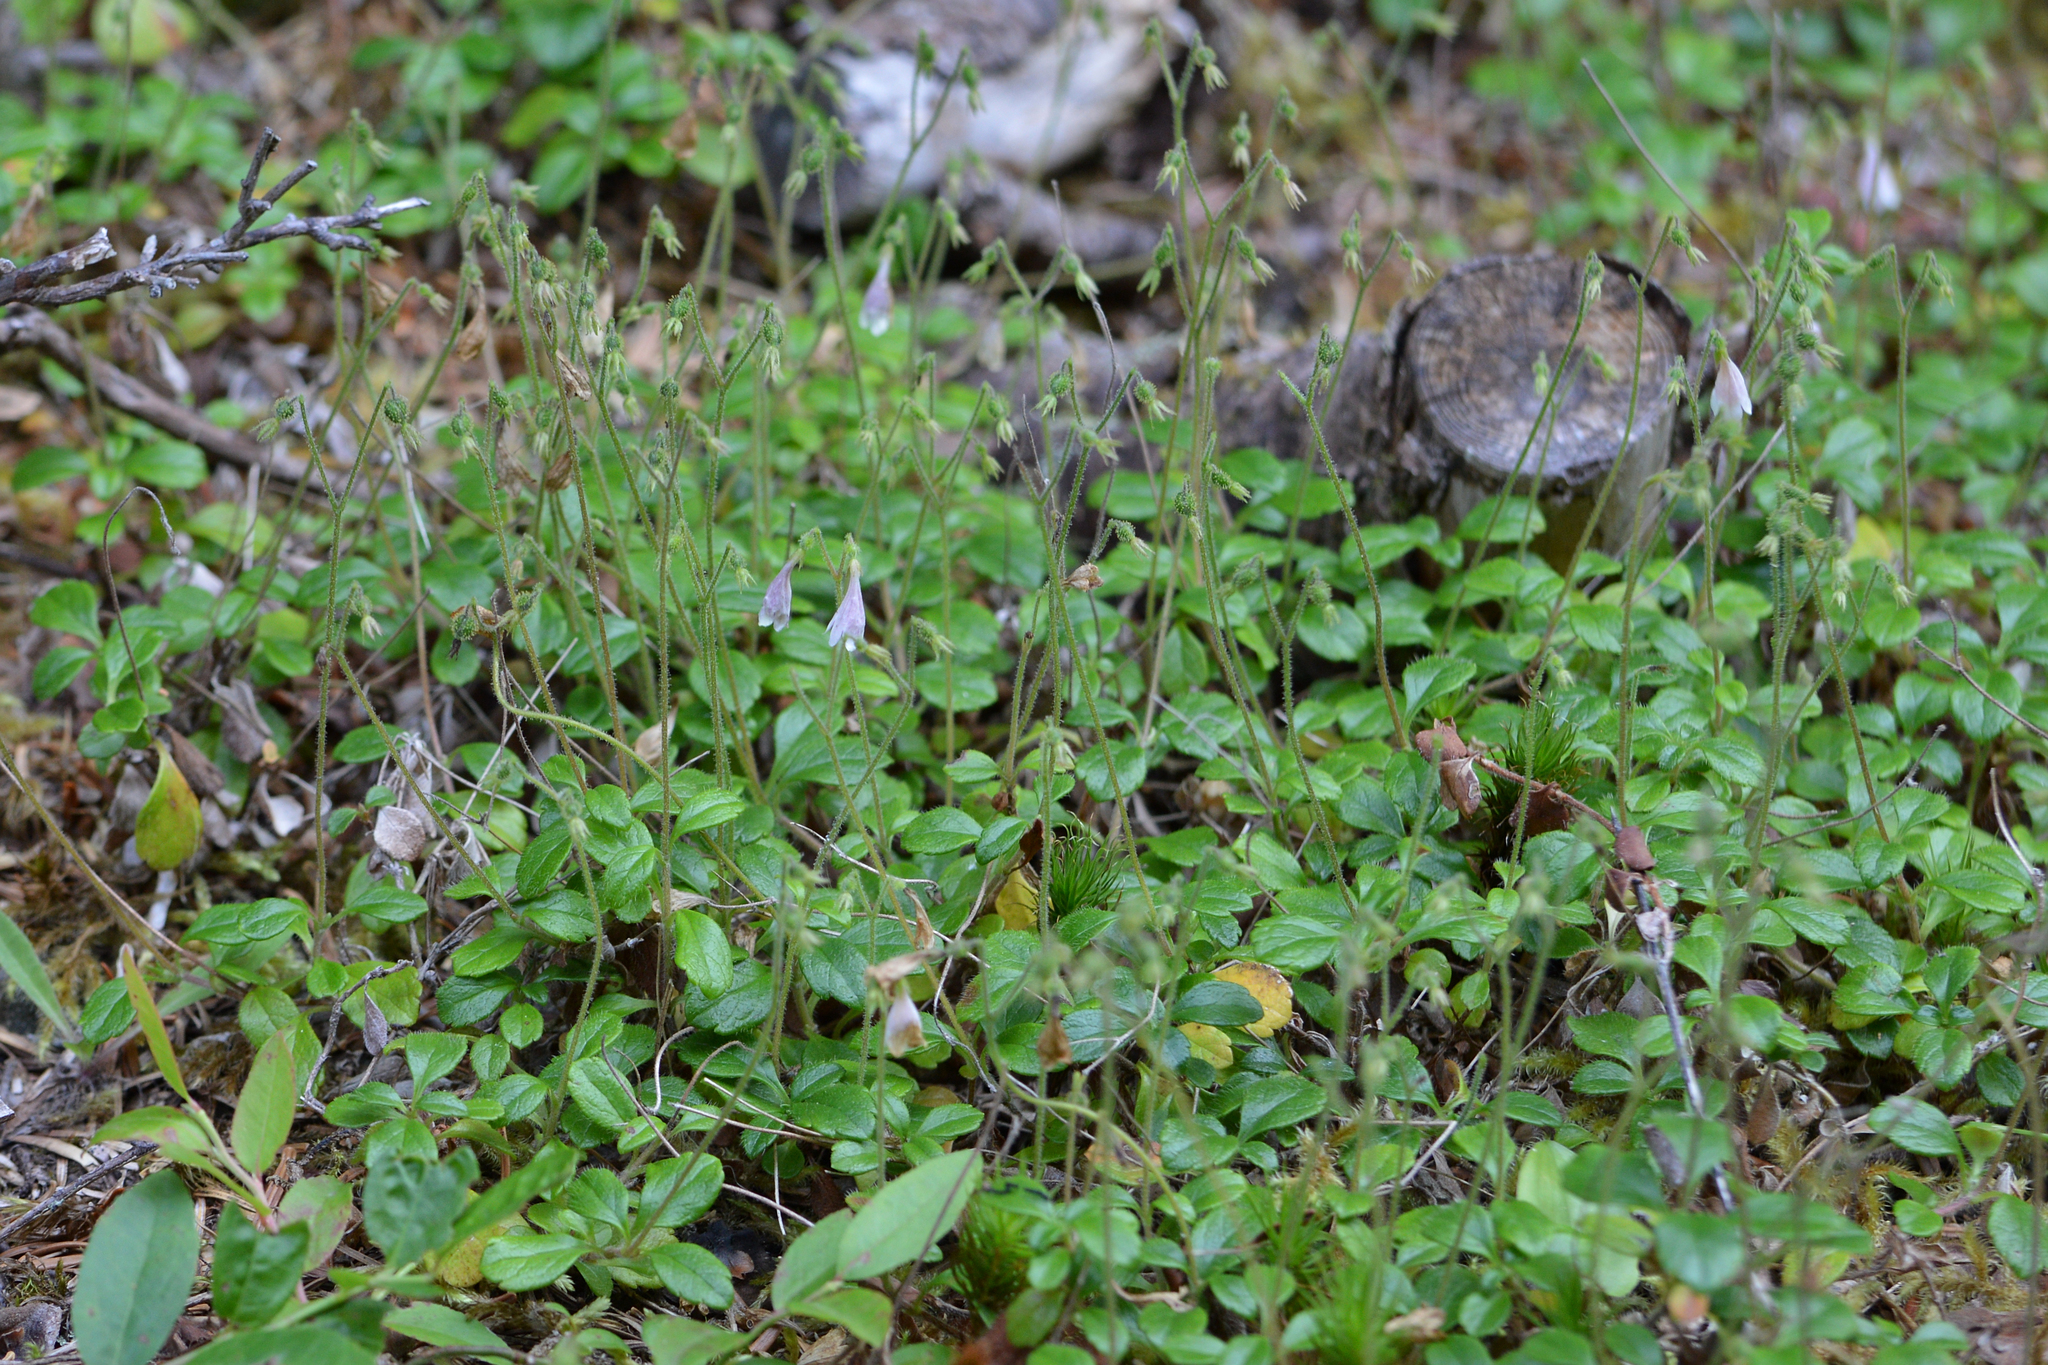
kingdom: Plantae
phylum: Tracheophyta
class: Magnoliopsida
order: Dipsacales
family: Caprifoliaceae
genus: Linnaea
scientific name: Linnaea borealis
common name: Twinflower
